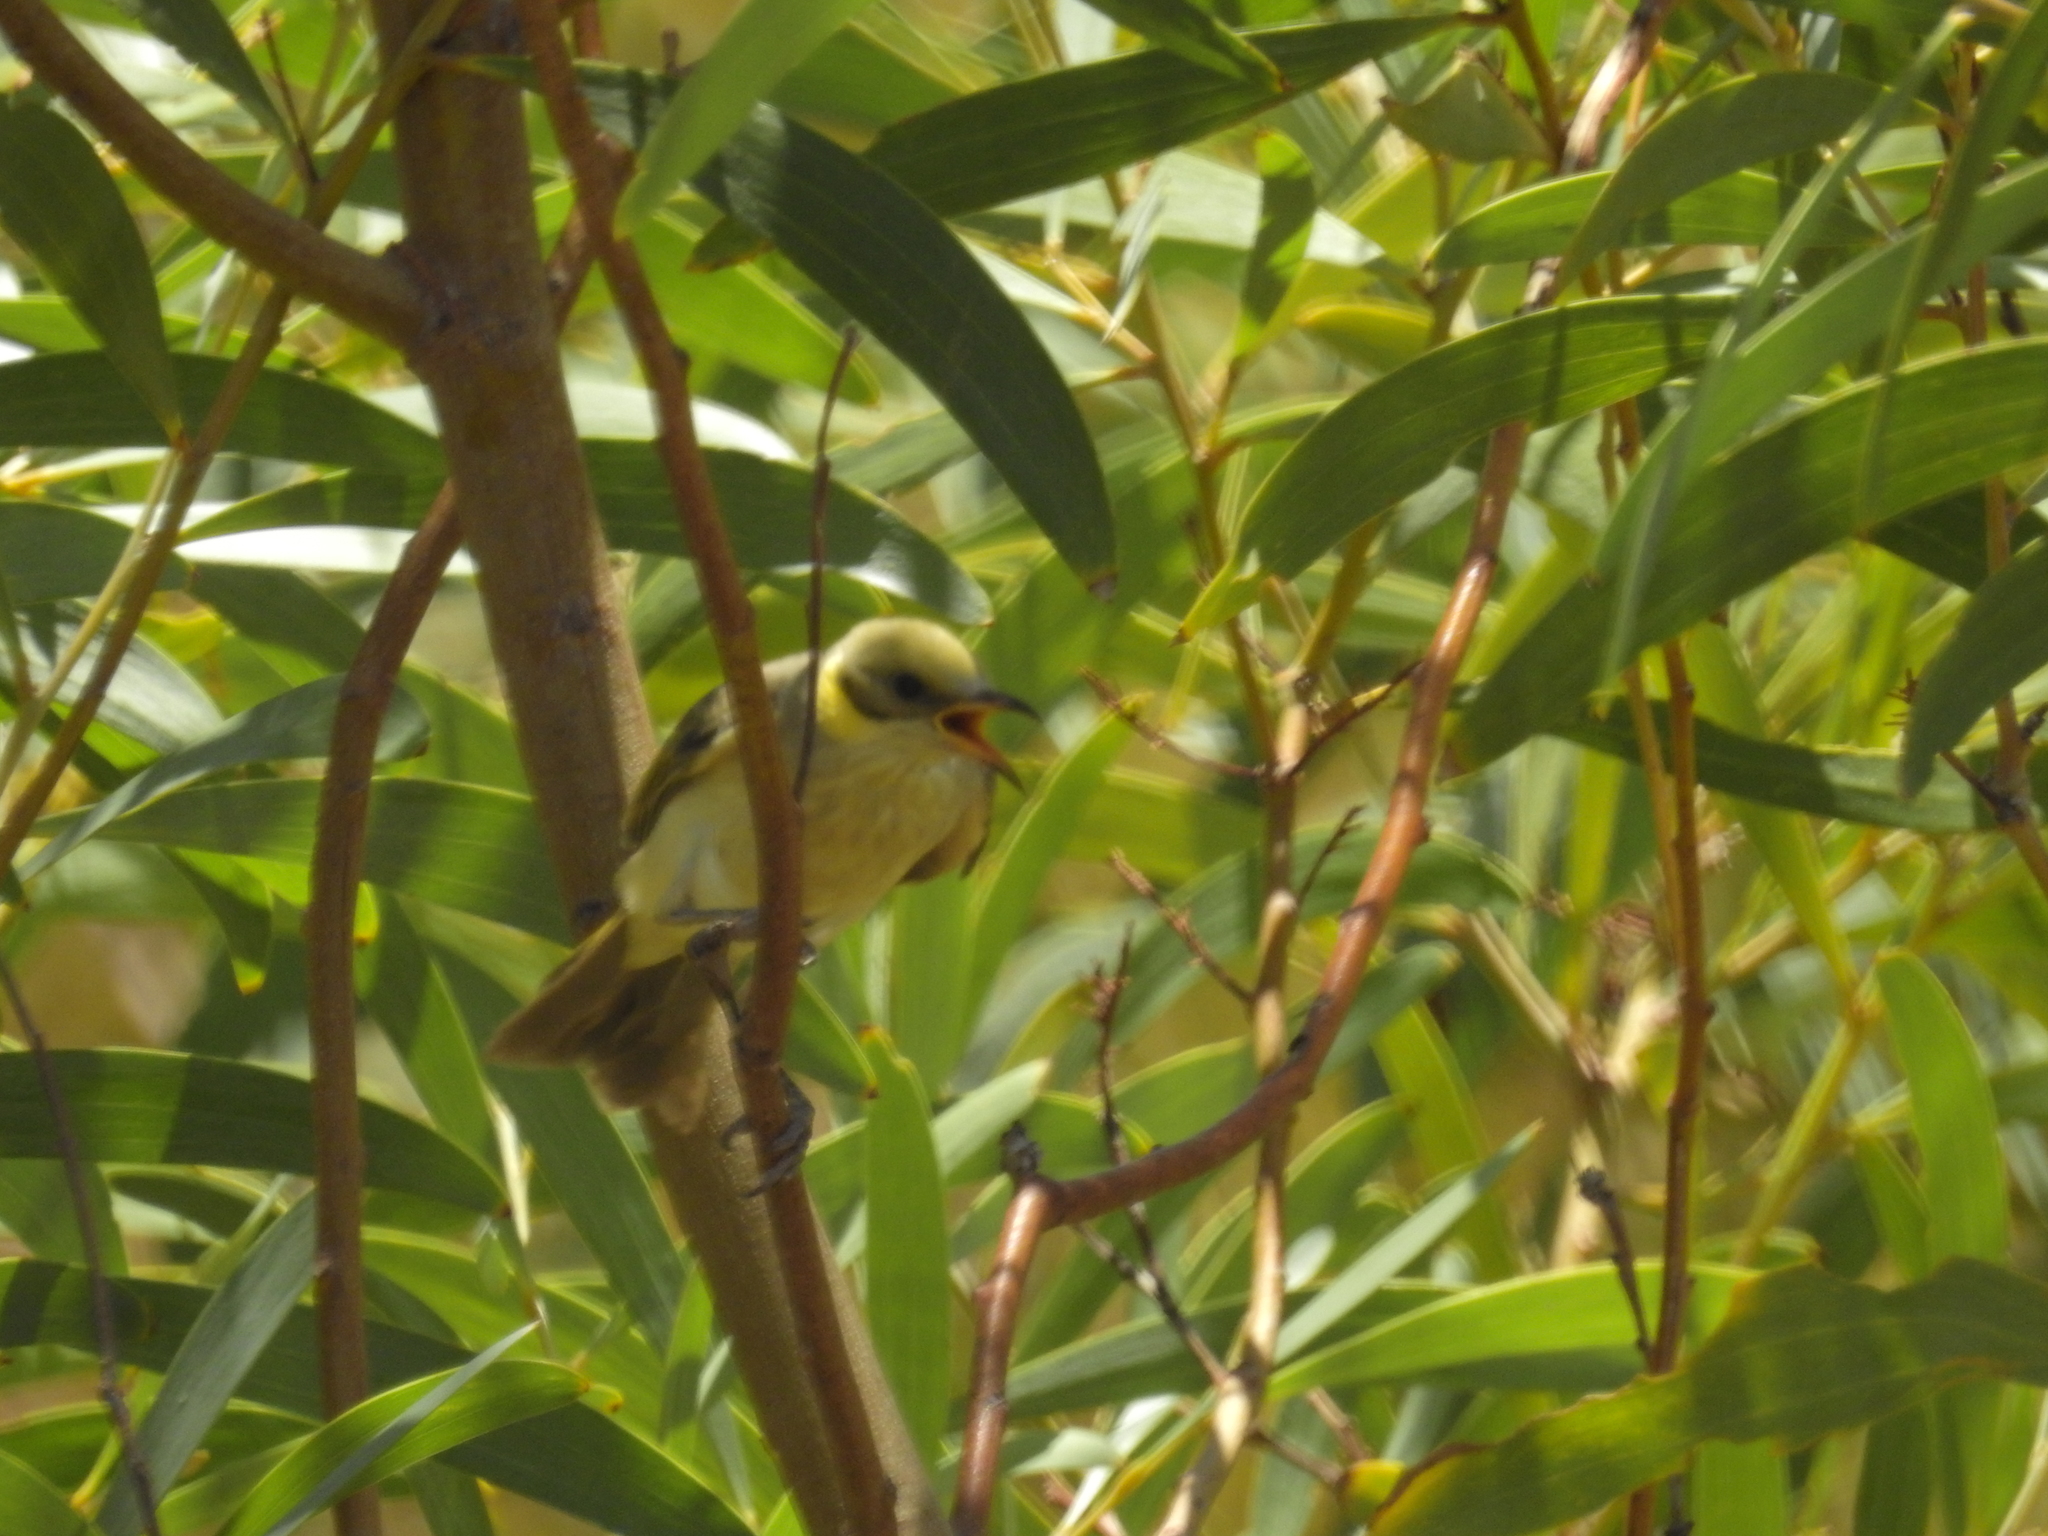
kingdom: Animalia
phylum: Chordata
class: Aves
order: Passeriformes
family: Meliphagidae
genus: Ptilotula
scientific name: Ptilotula plumula
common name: Grey-fronted honeyeater
